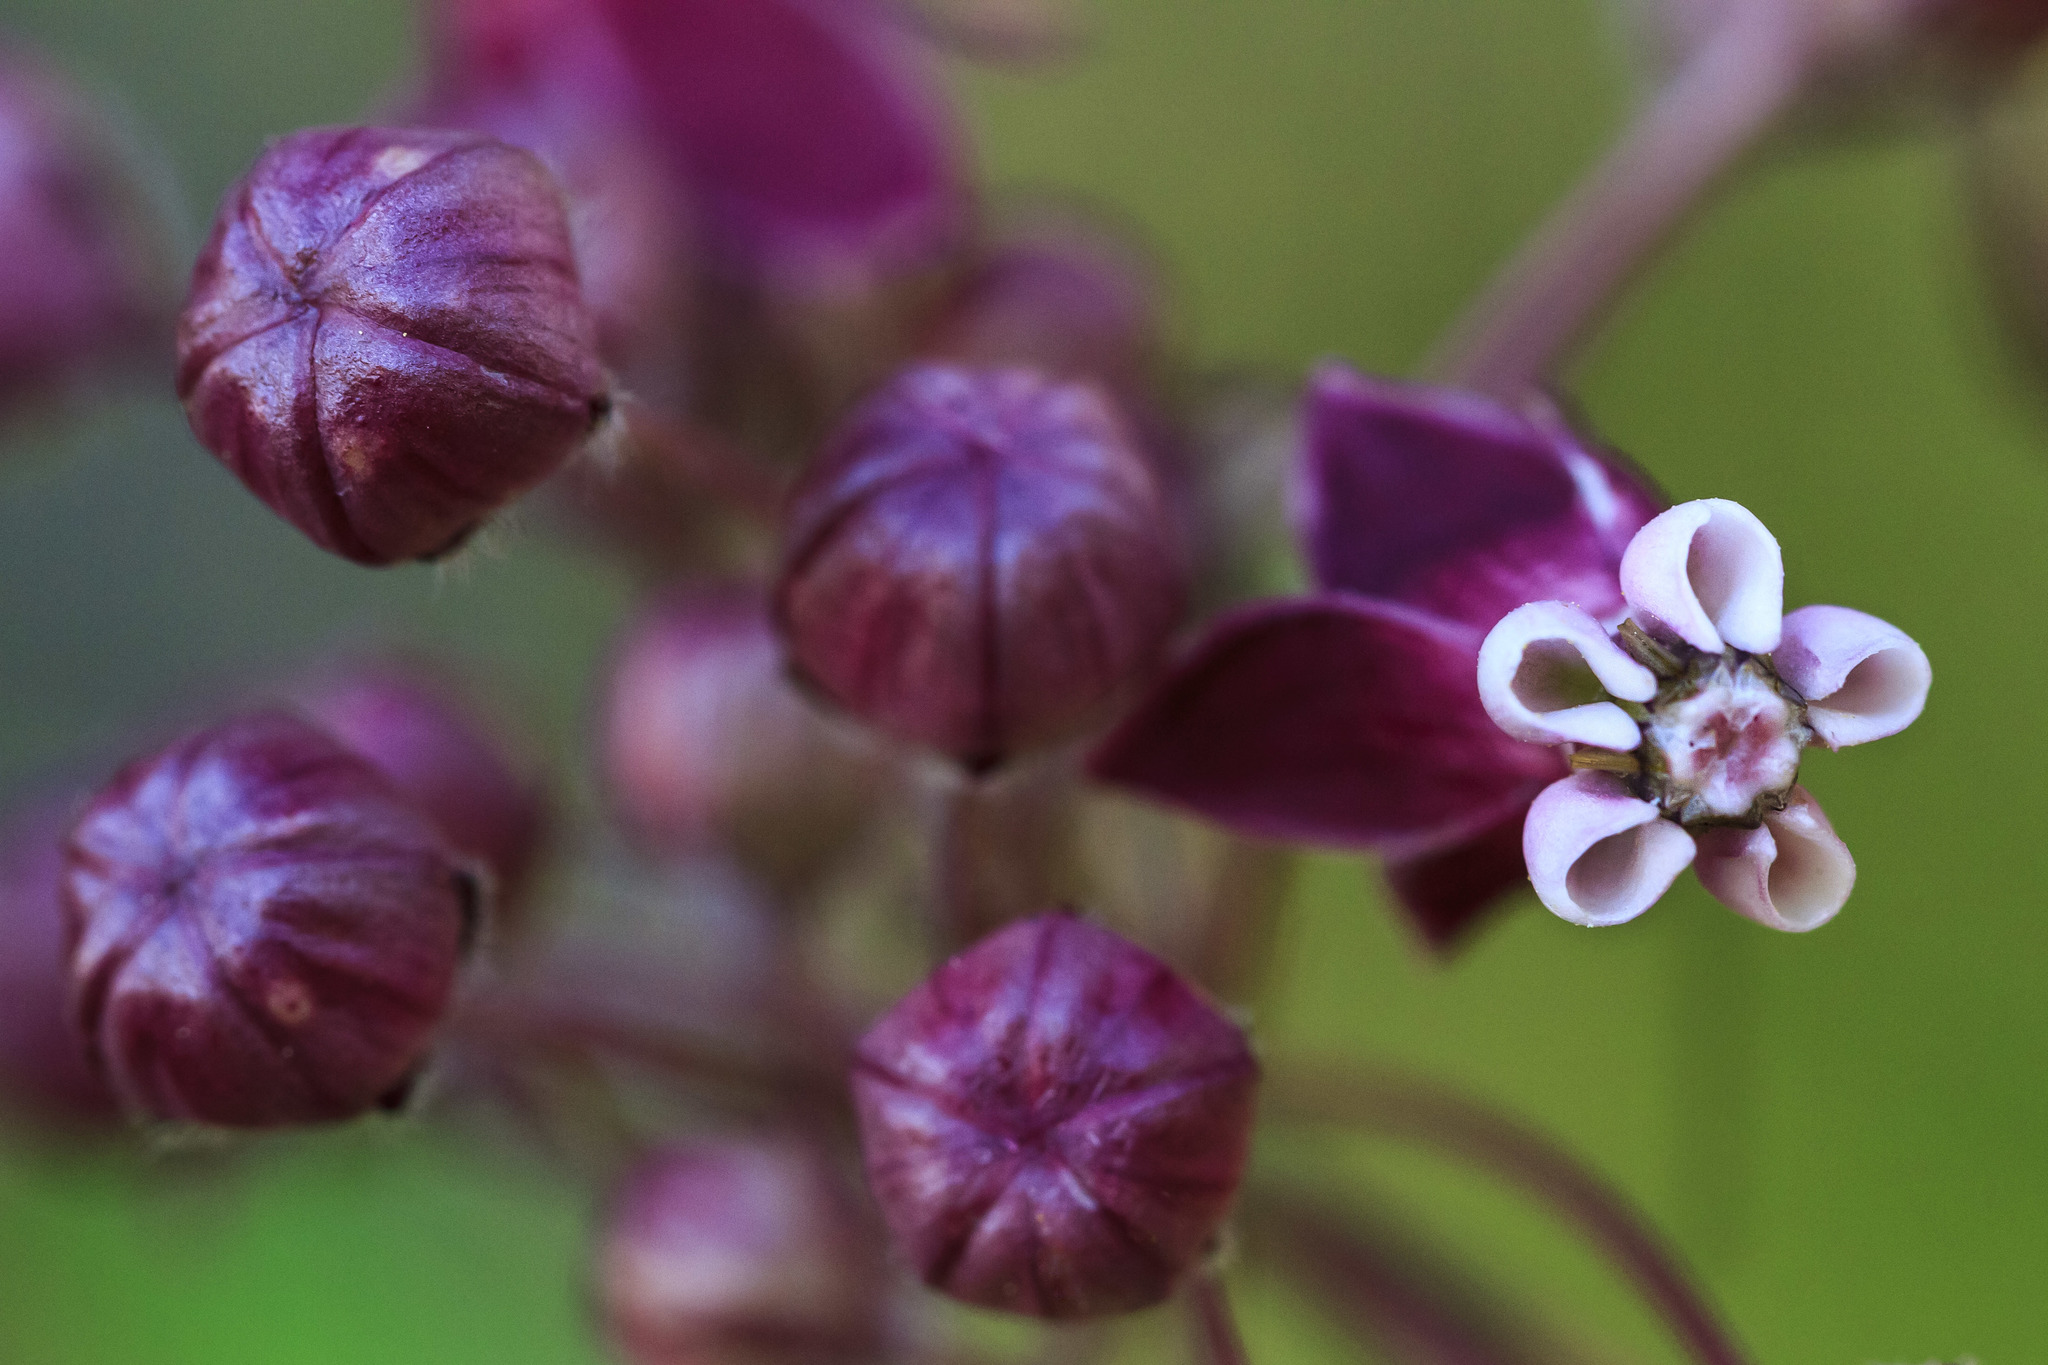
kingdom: Plantae
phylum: Tracheophyta
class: Magnoliopsida
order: Gentianales
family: Apocynaceae
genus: Asclepias
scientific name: Asclepias cordifolia
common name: Purple milkweed
